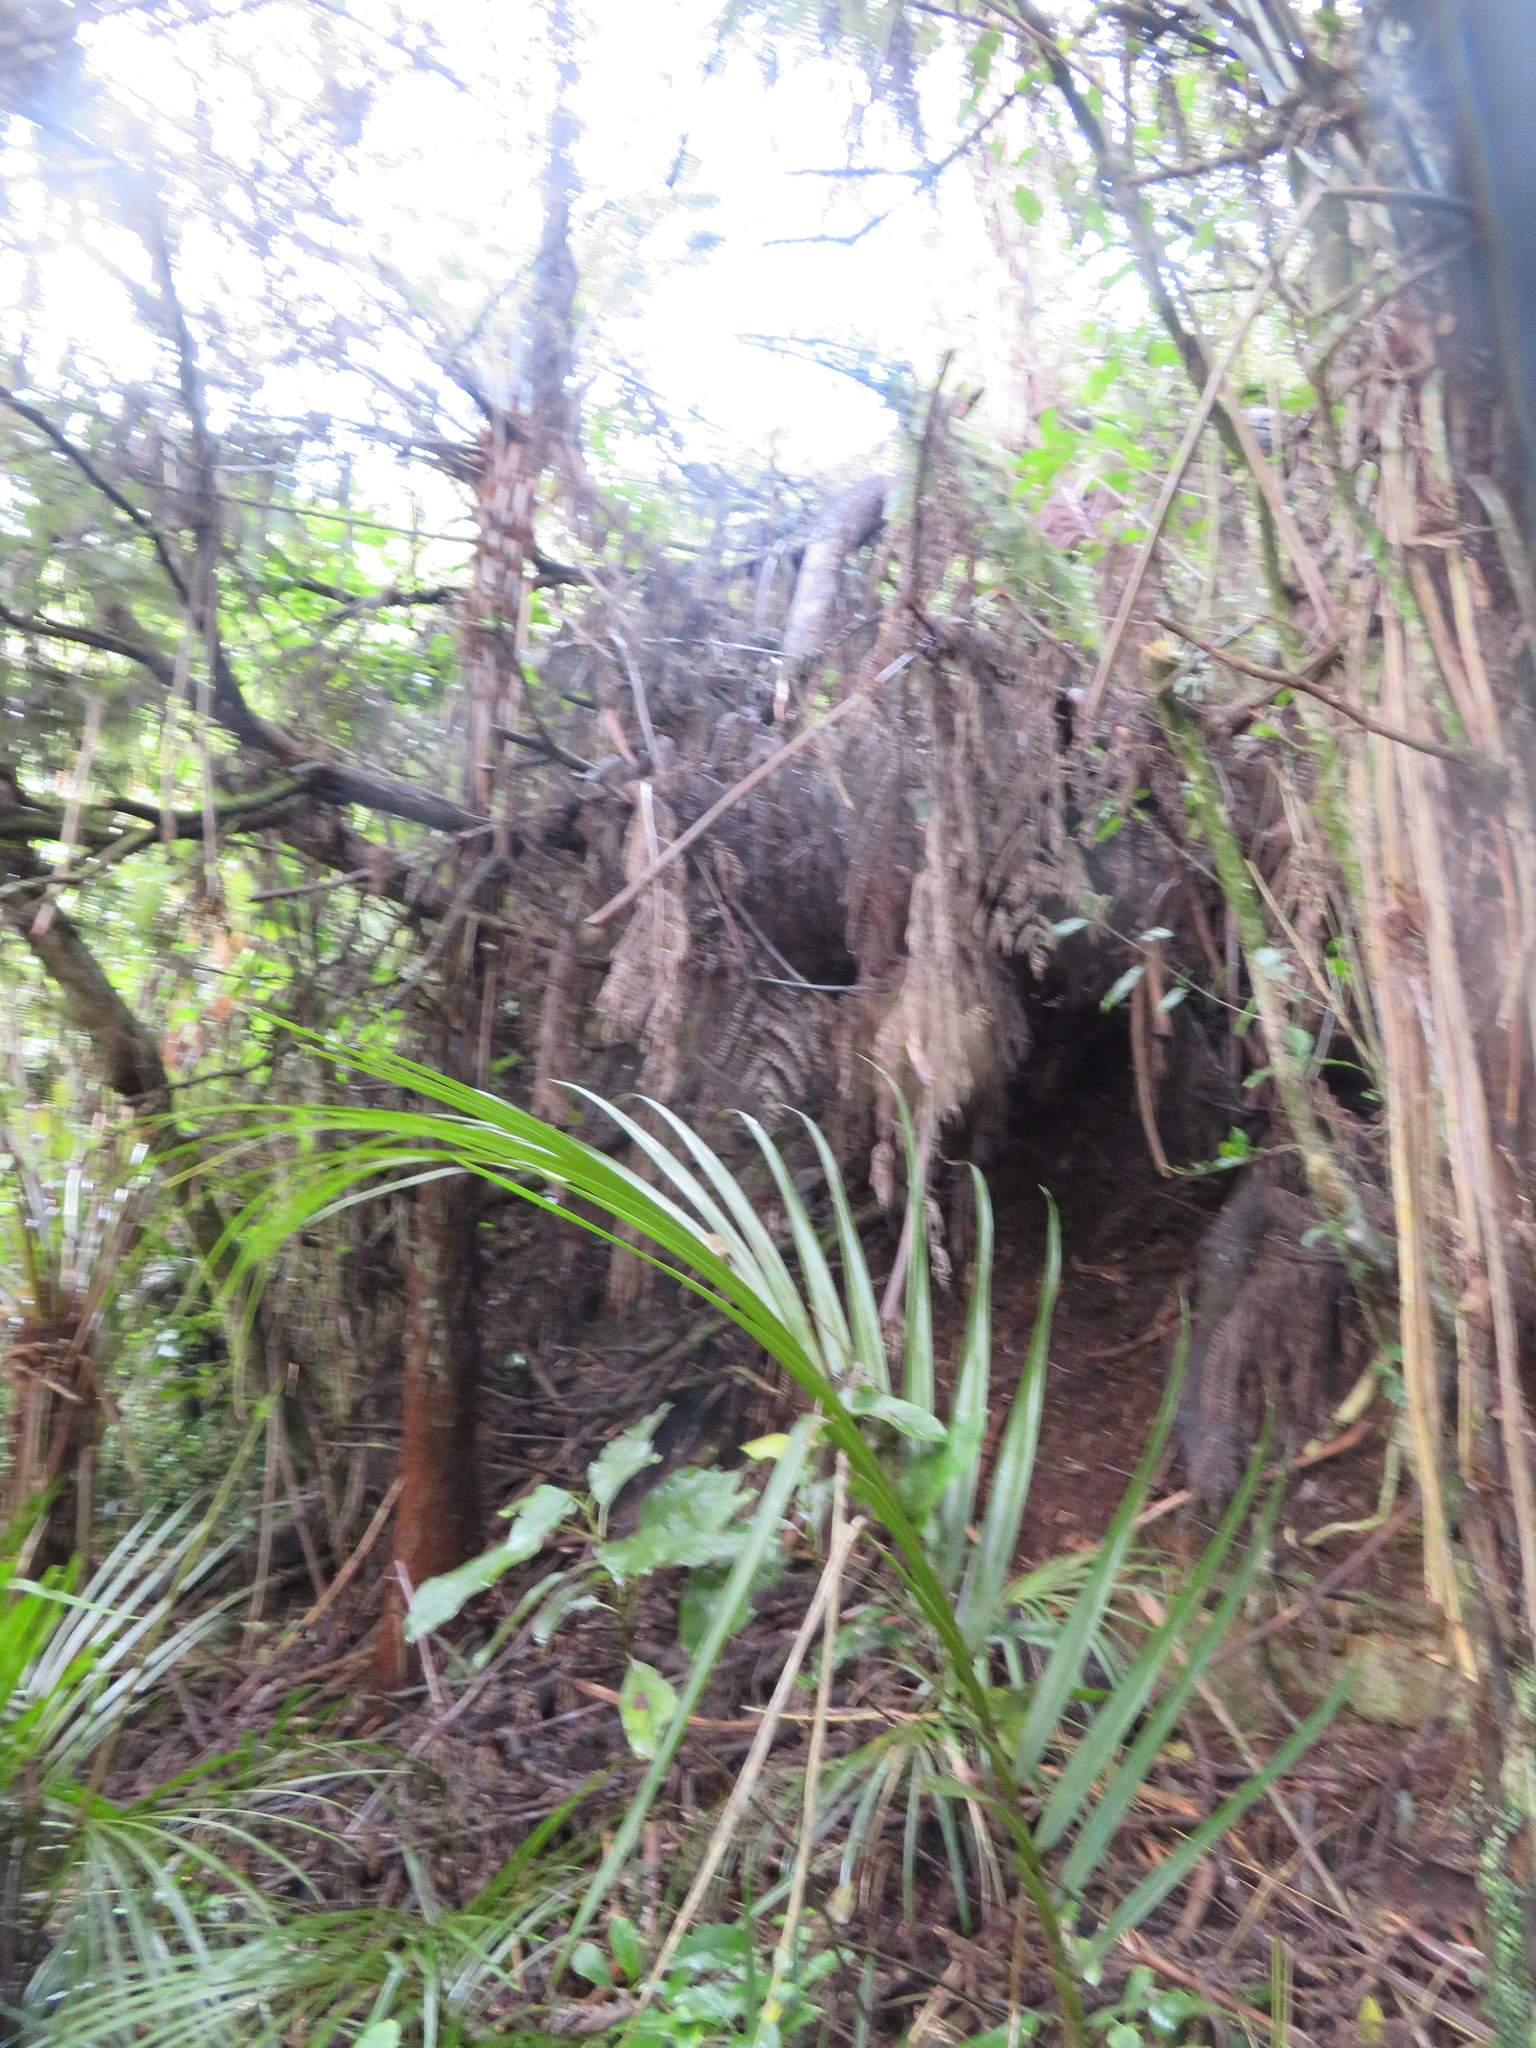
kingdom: Plantae
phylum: Tracheophyta
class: Liliopsida
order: Arecales
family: Arecaceae
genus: Rhopalostylis
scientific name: Rhopalostylis sapida
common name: Feather-duster palm
